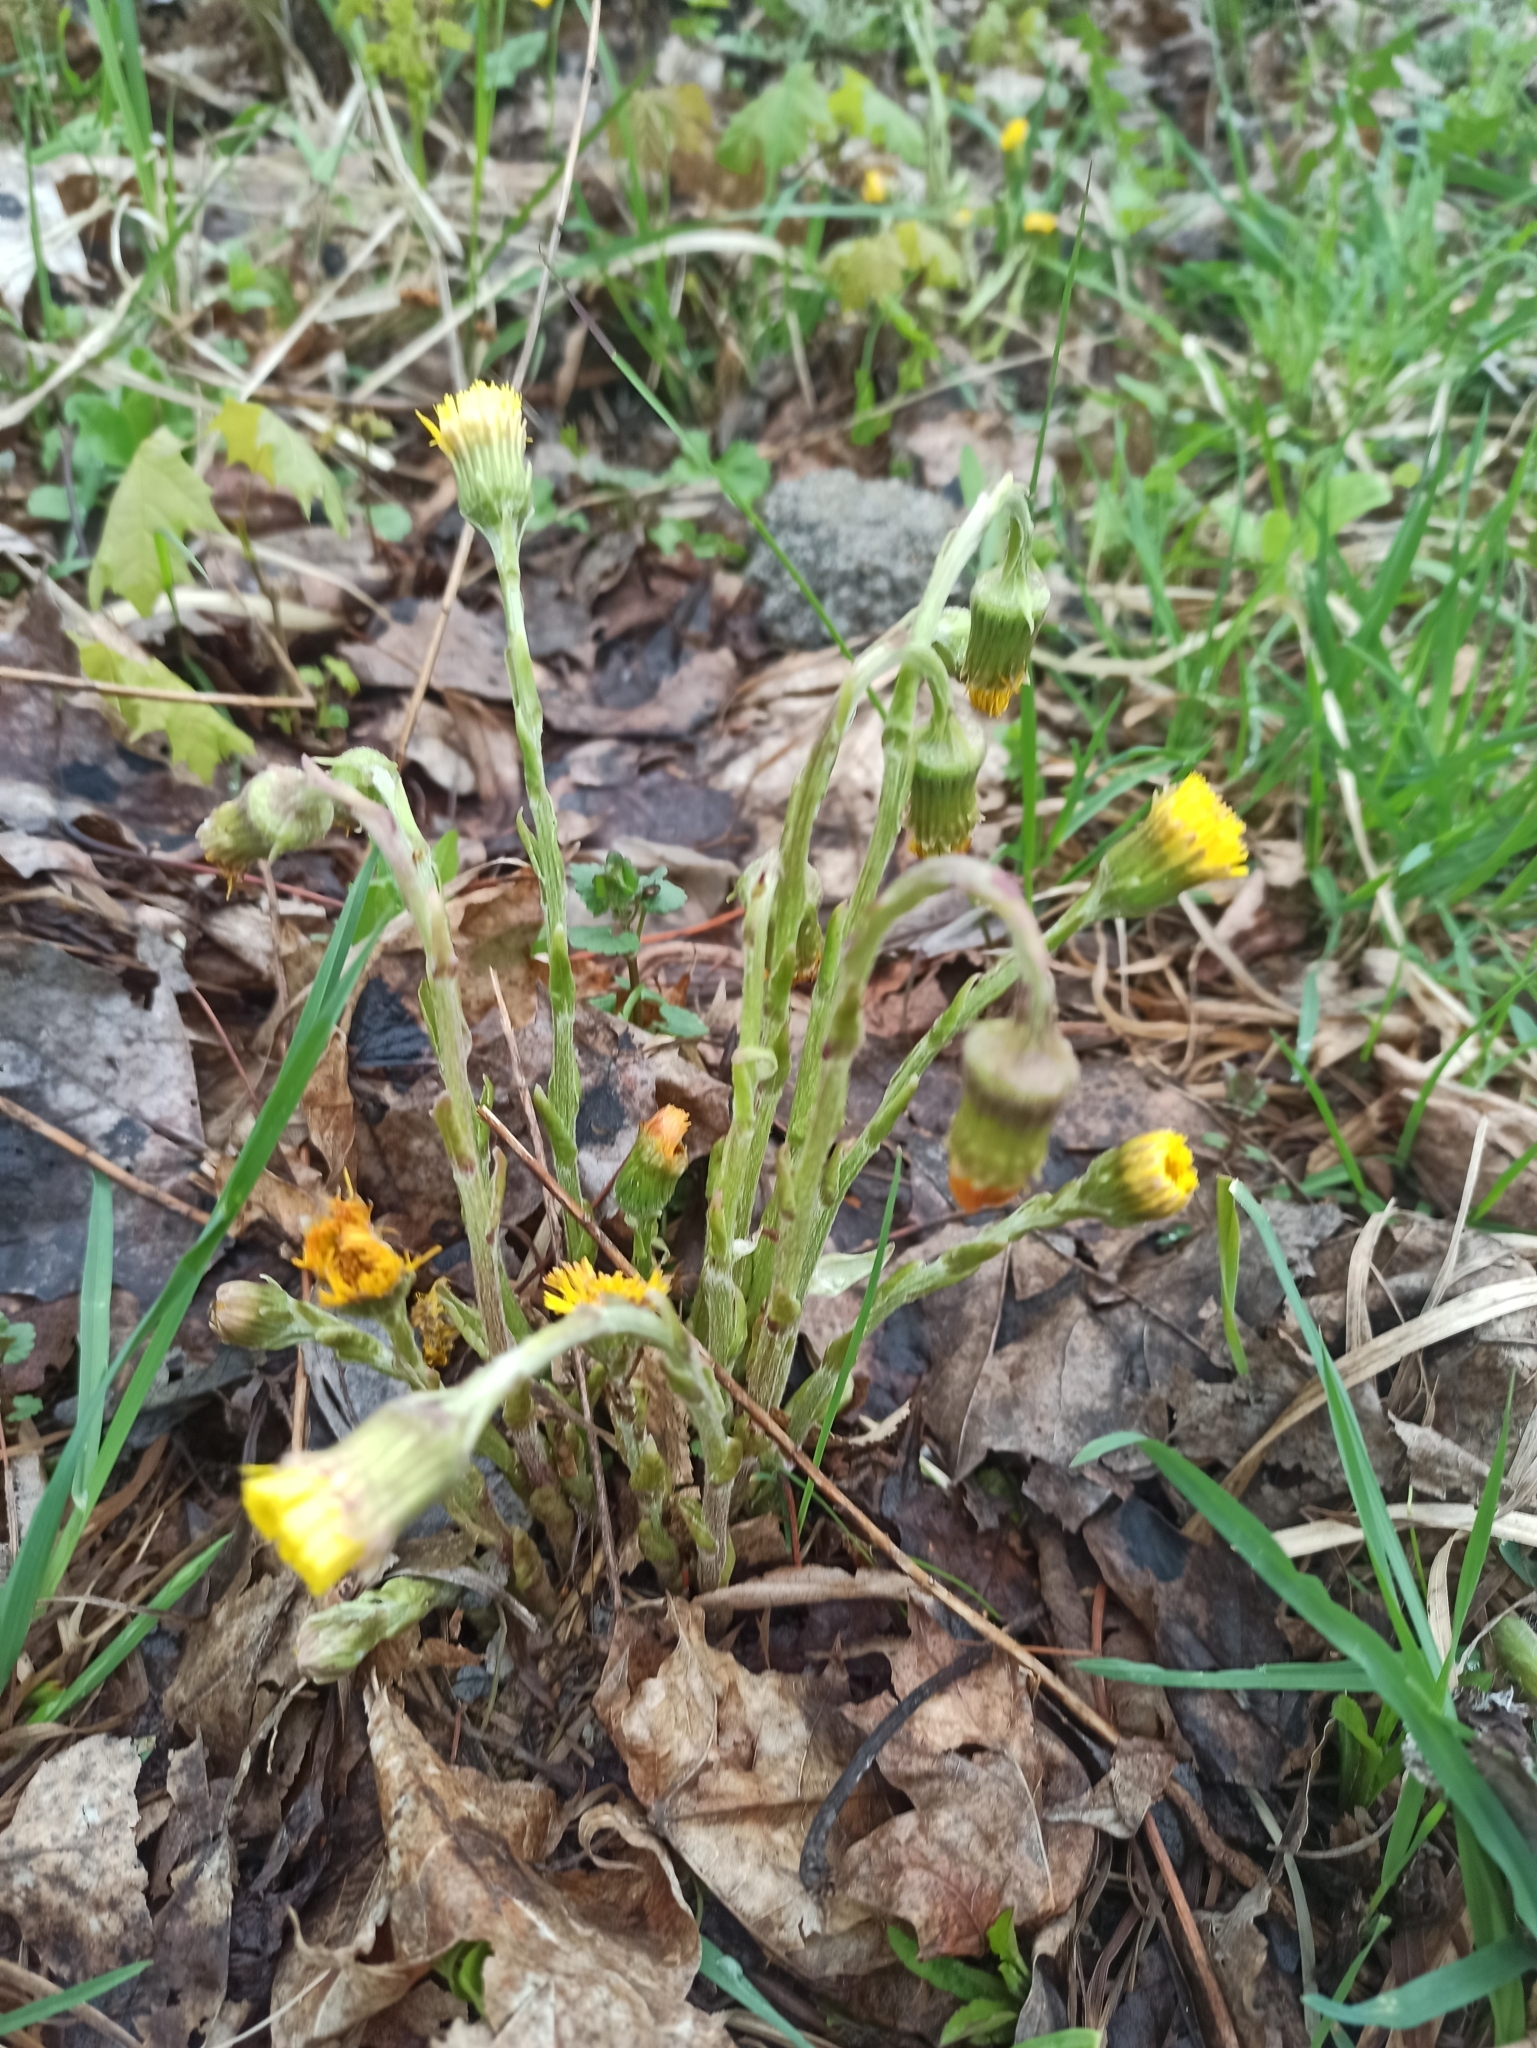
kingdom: Plantae
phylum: Tracheophyta
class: Magnoliopsida
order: Asterales
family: Asteraceae
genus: Tussilago
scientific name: Tussilago farfara
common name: Coltsfoot
